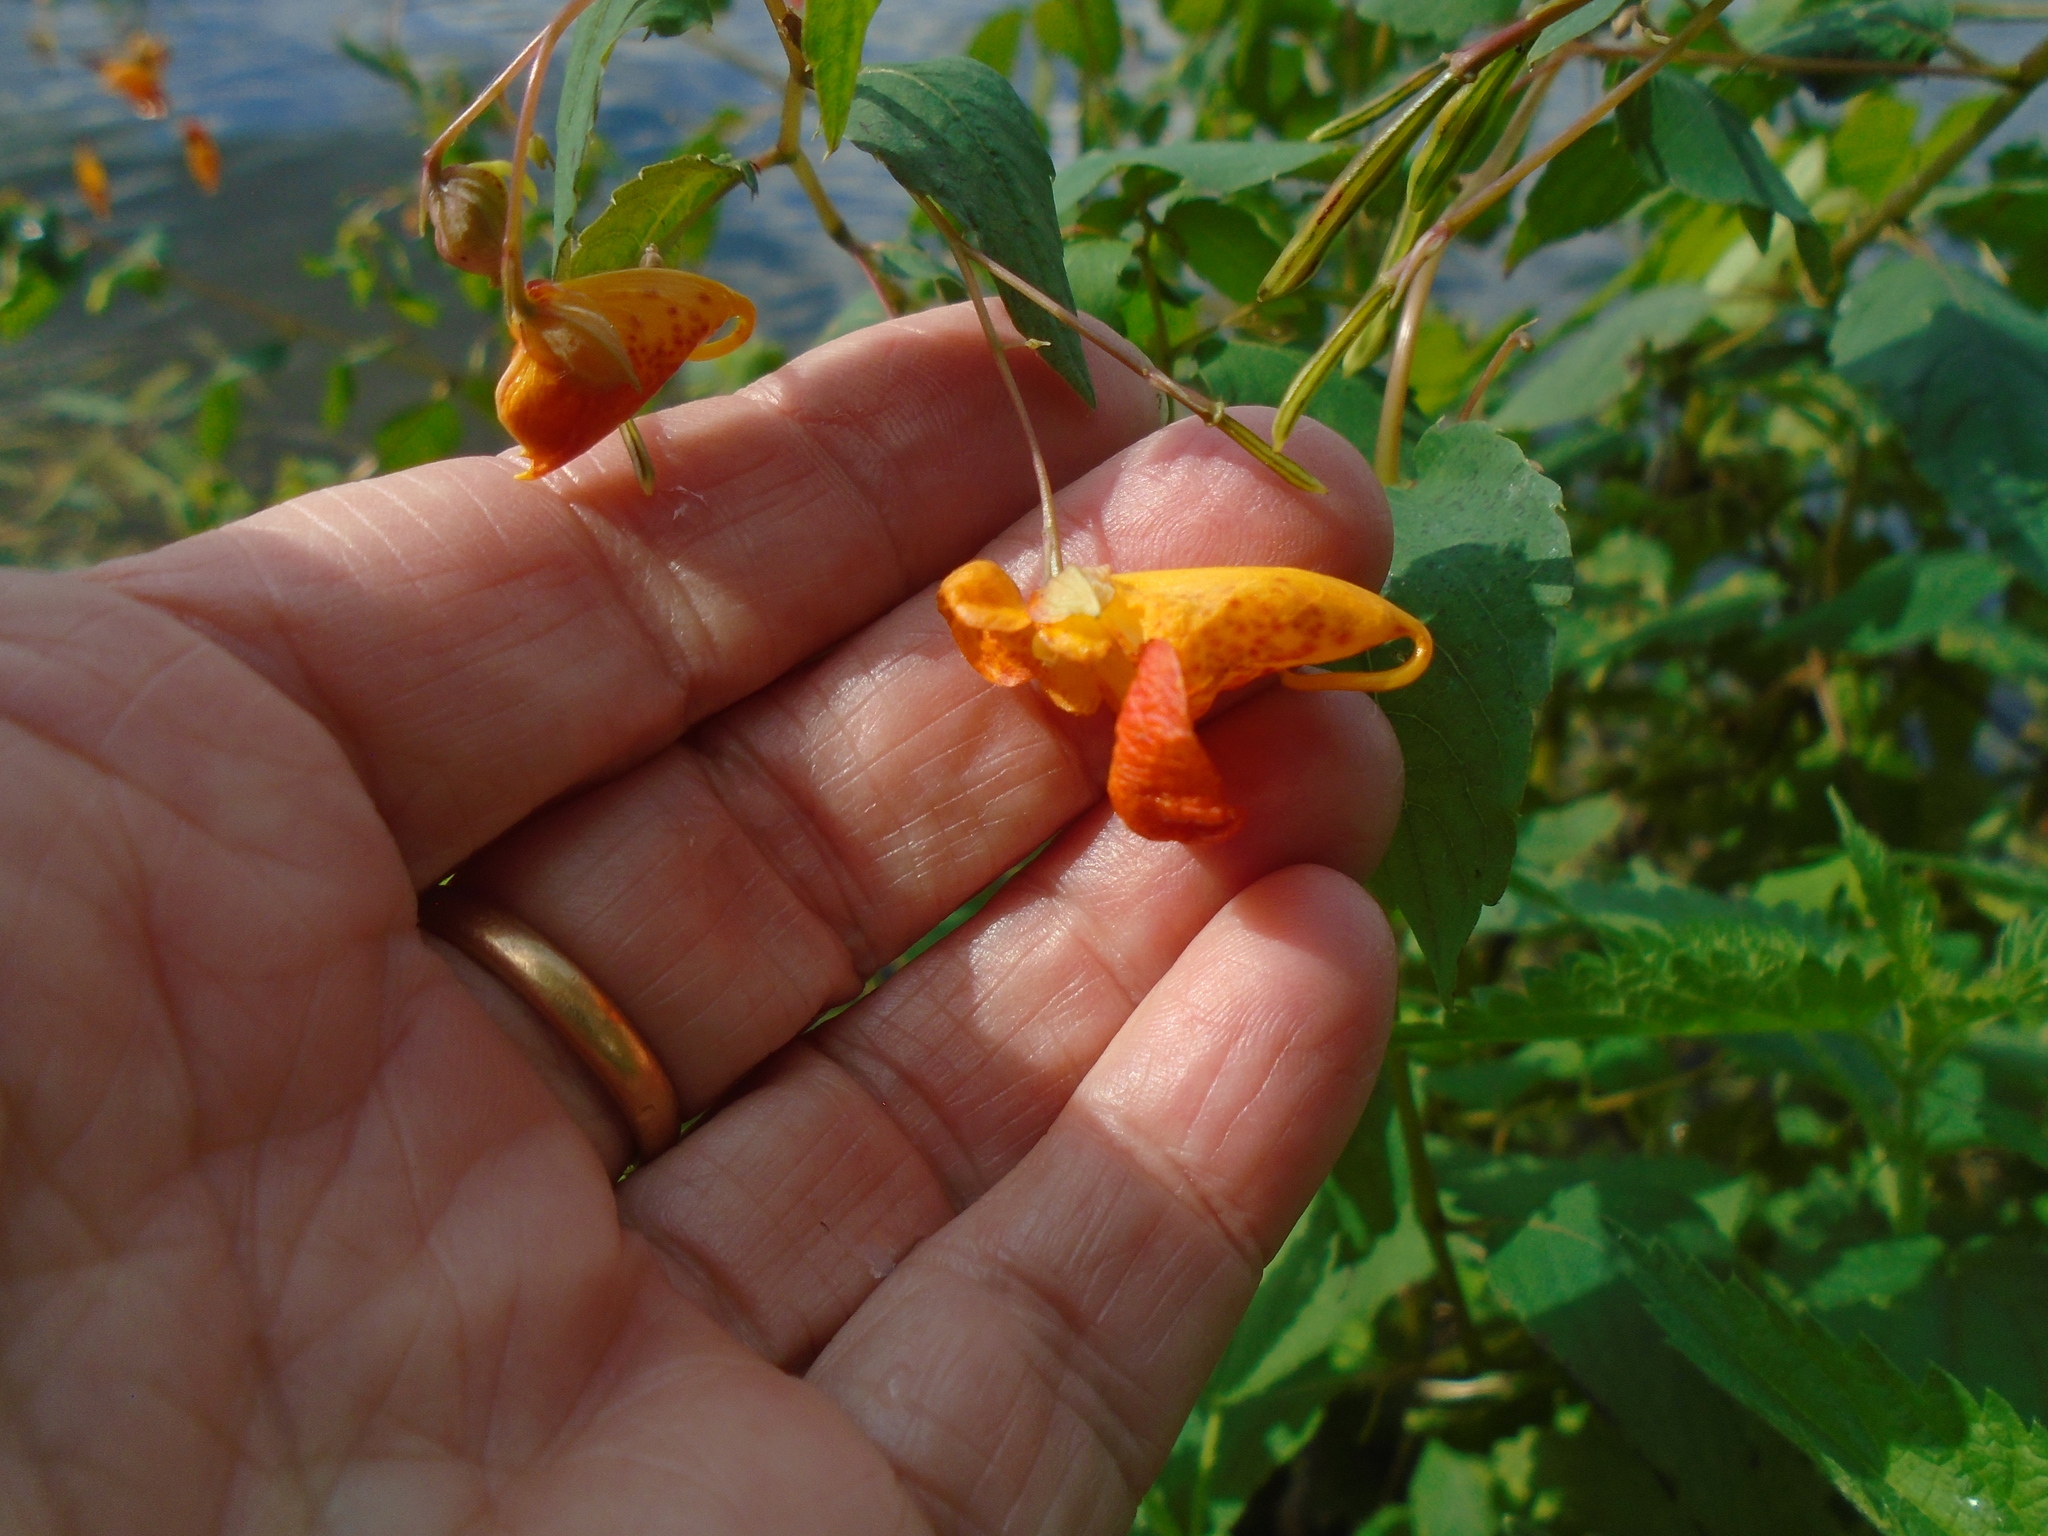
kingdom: Plantae
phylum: Tracheophyta
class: Magnoliopsida
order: Ericales
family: Balsaminaceae
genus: Impatiens
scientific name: Impatiens capensis
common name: Orange balsam
